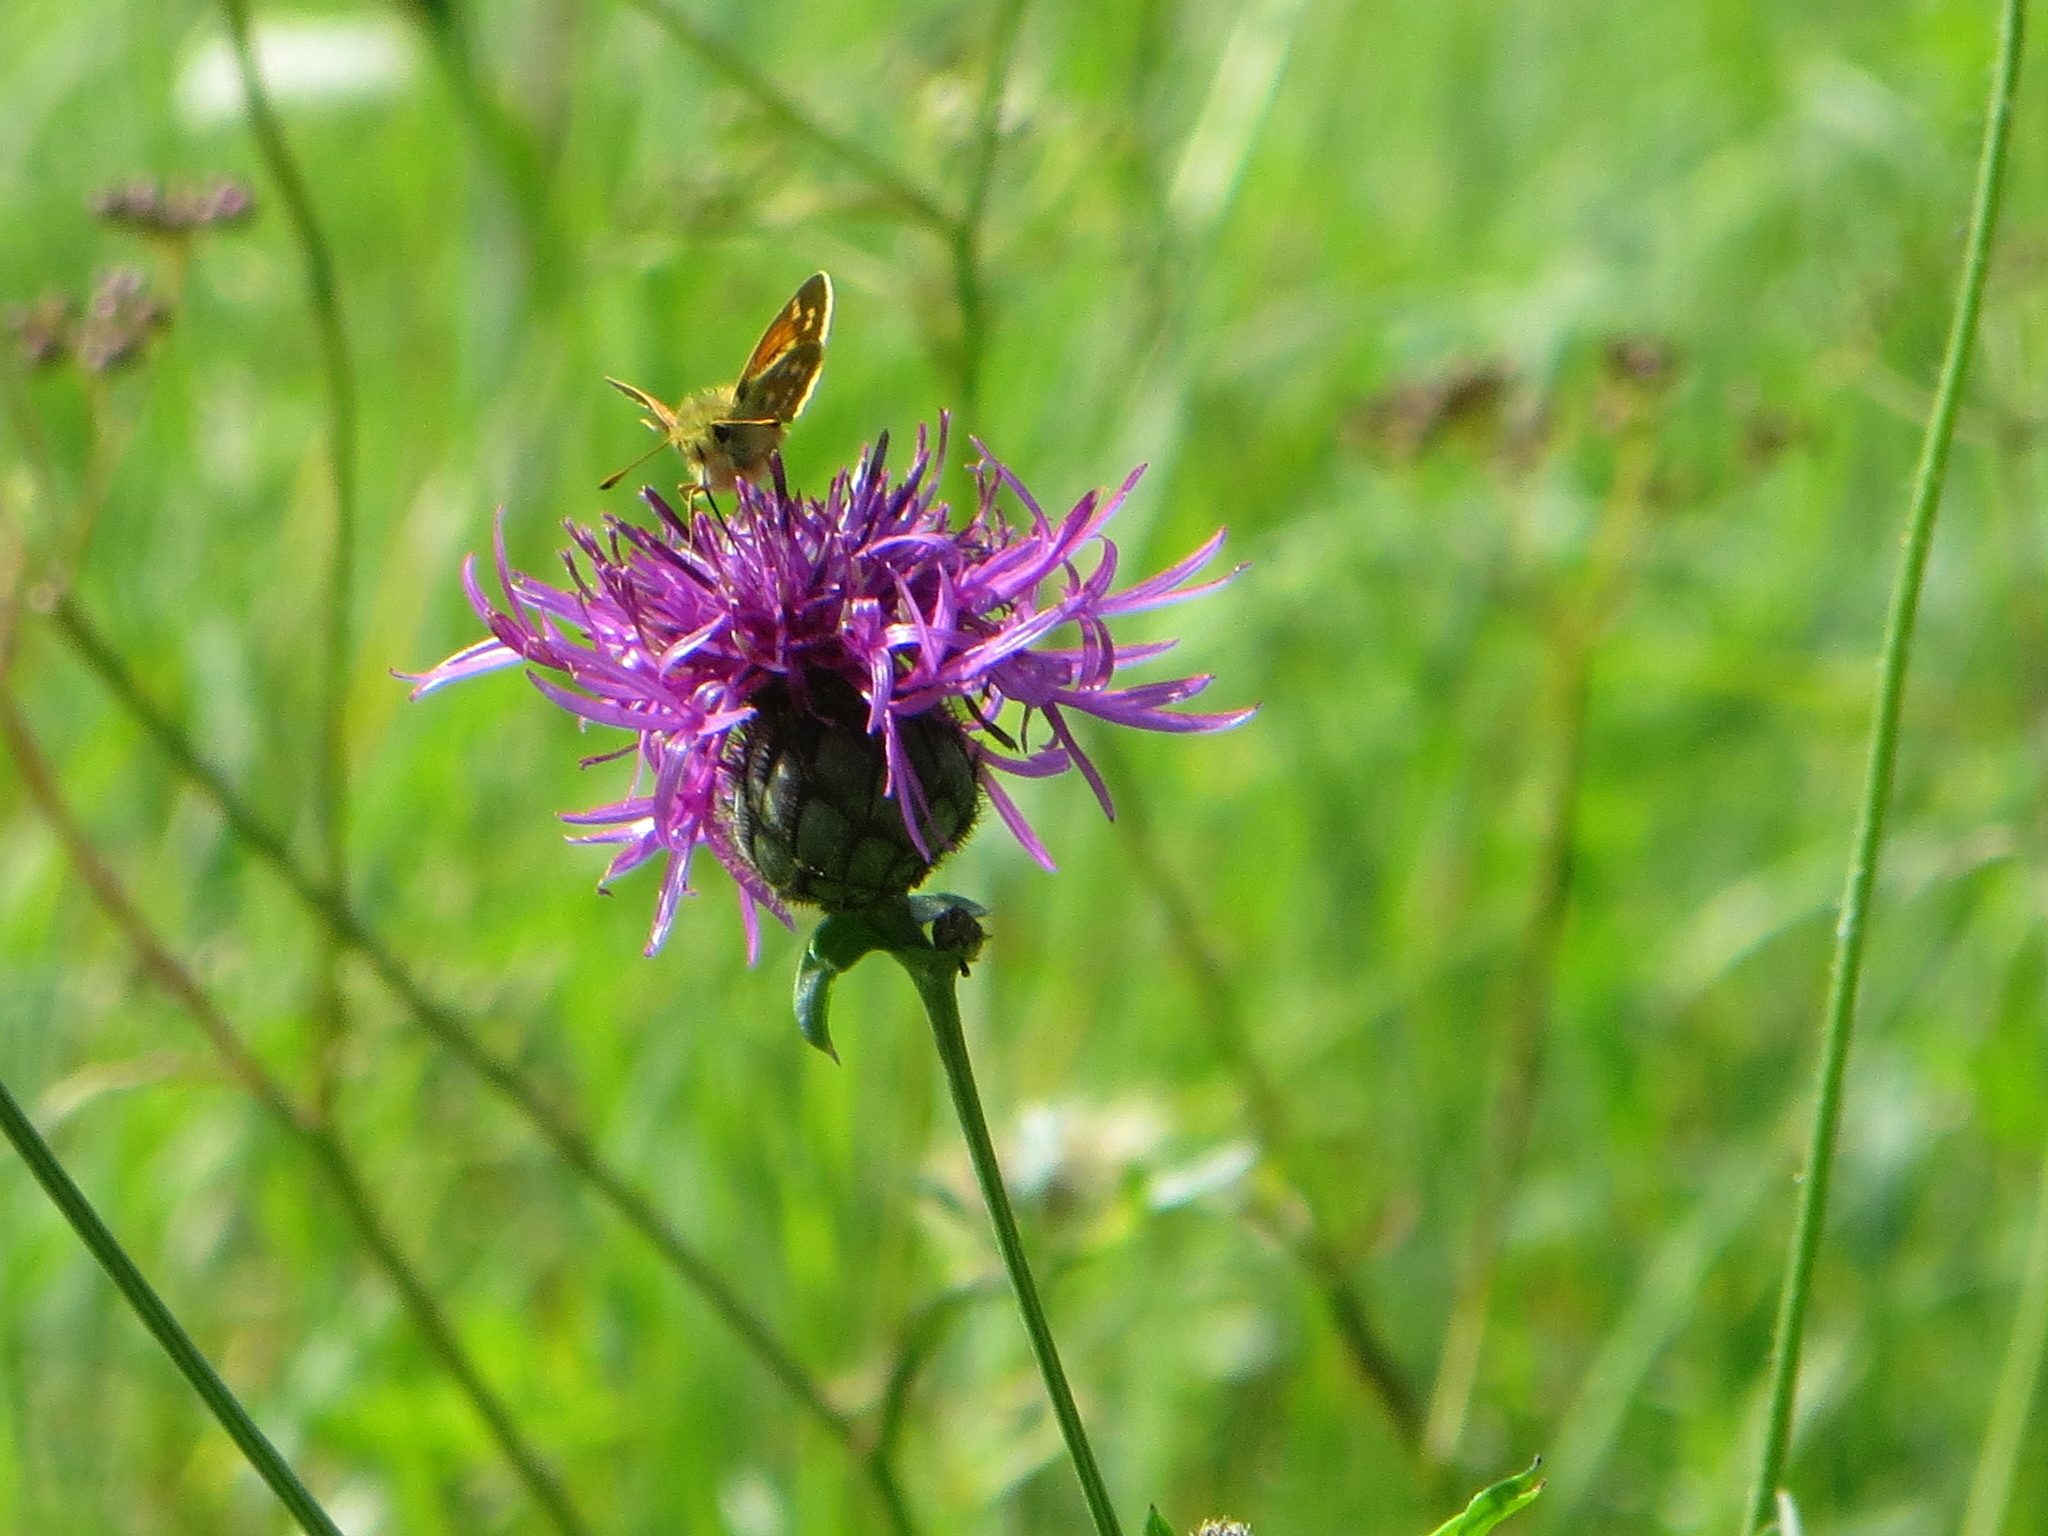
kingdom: Animalia
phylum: Arthropoda
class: Insecta
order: Lepidoptera
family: Hesperiidae
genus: Hesperia
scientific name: Hesperia comma
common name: Common branded skipper
